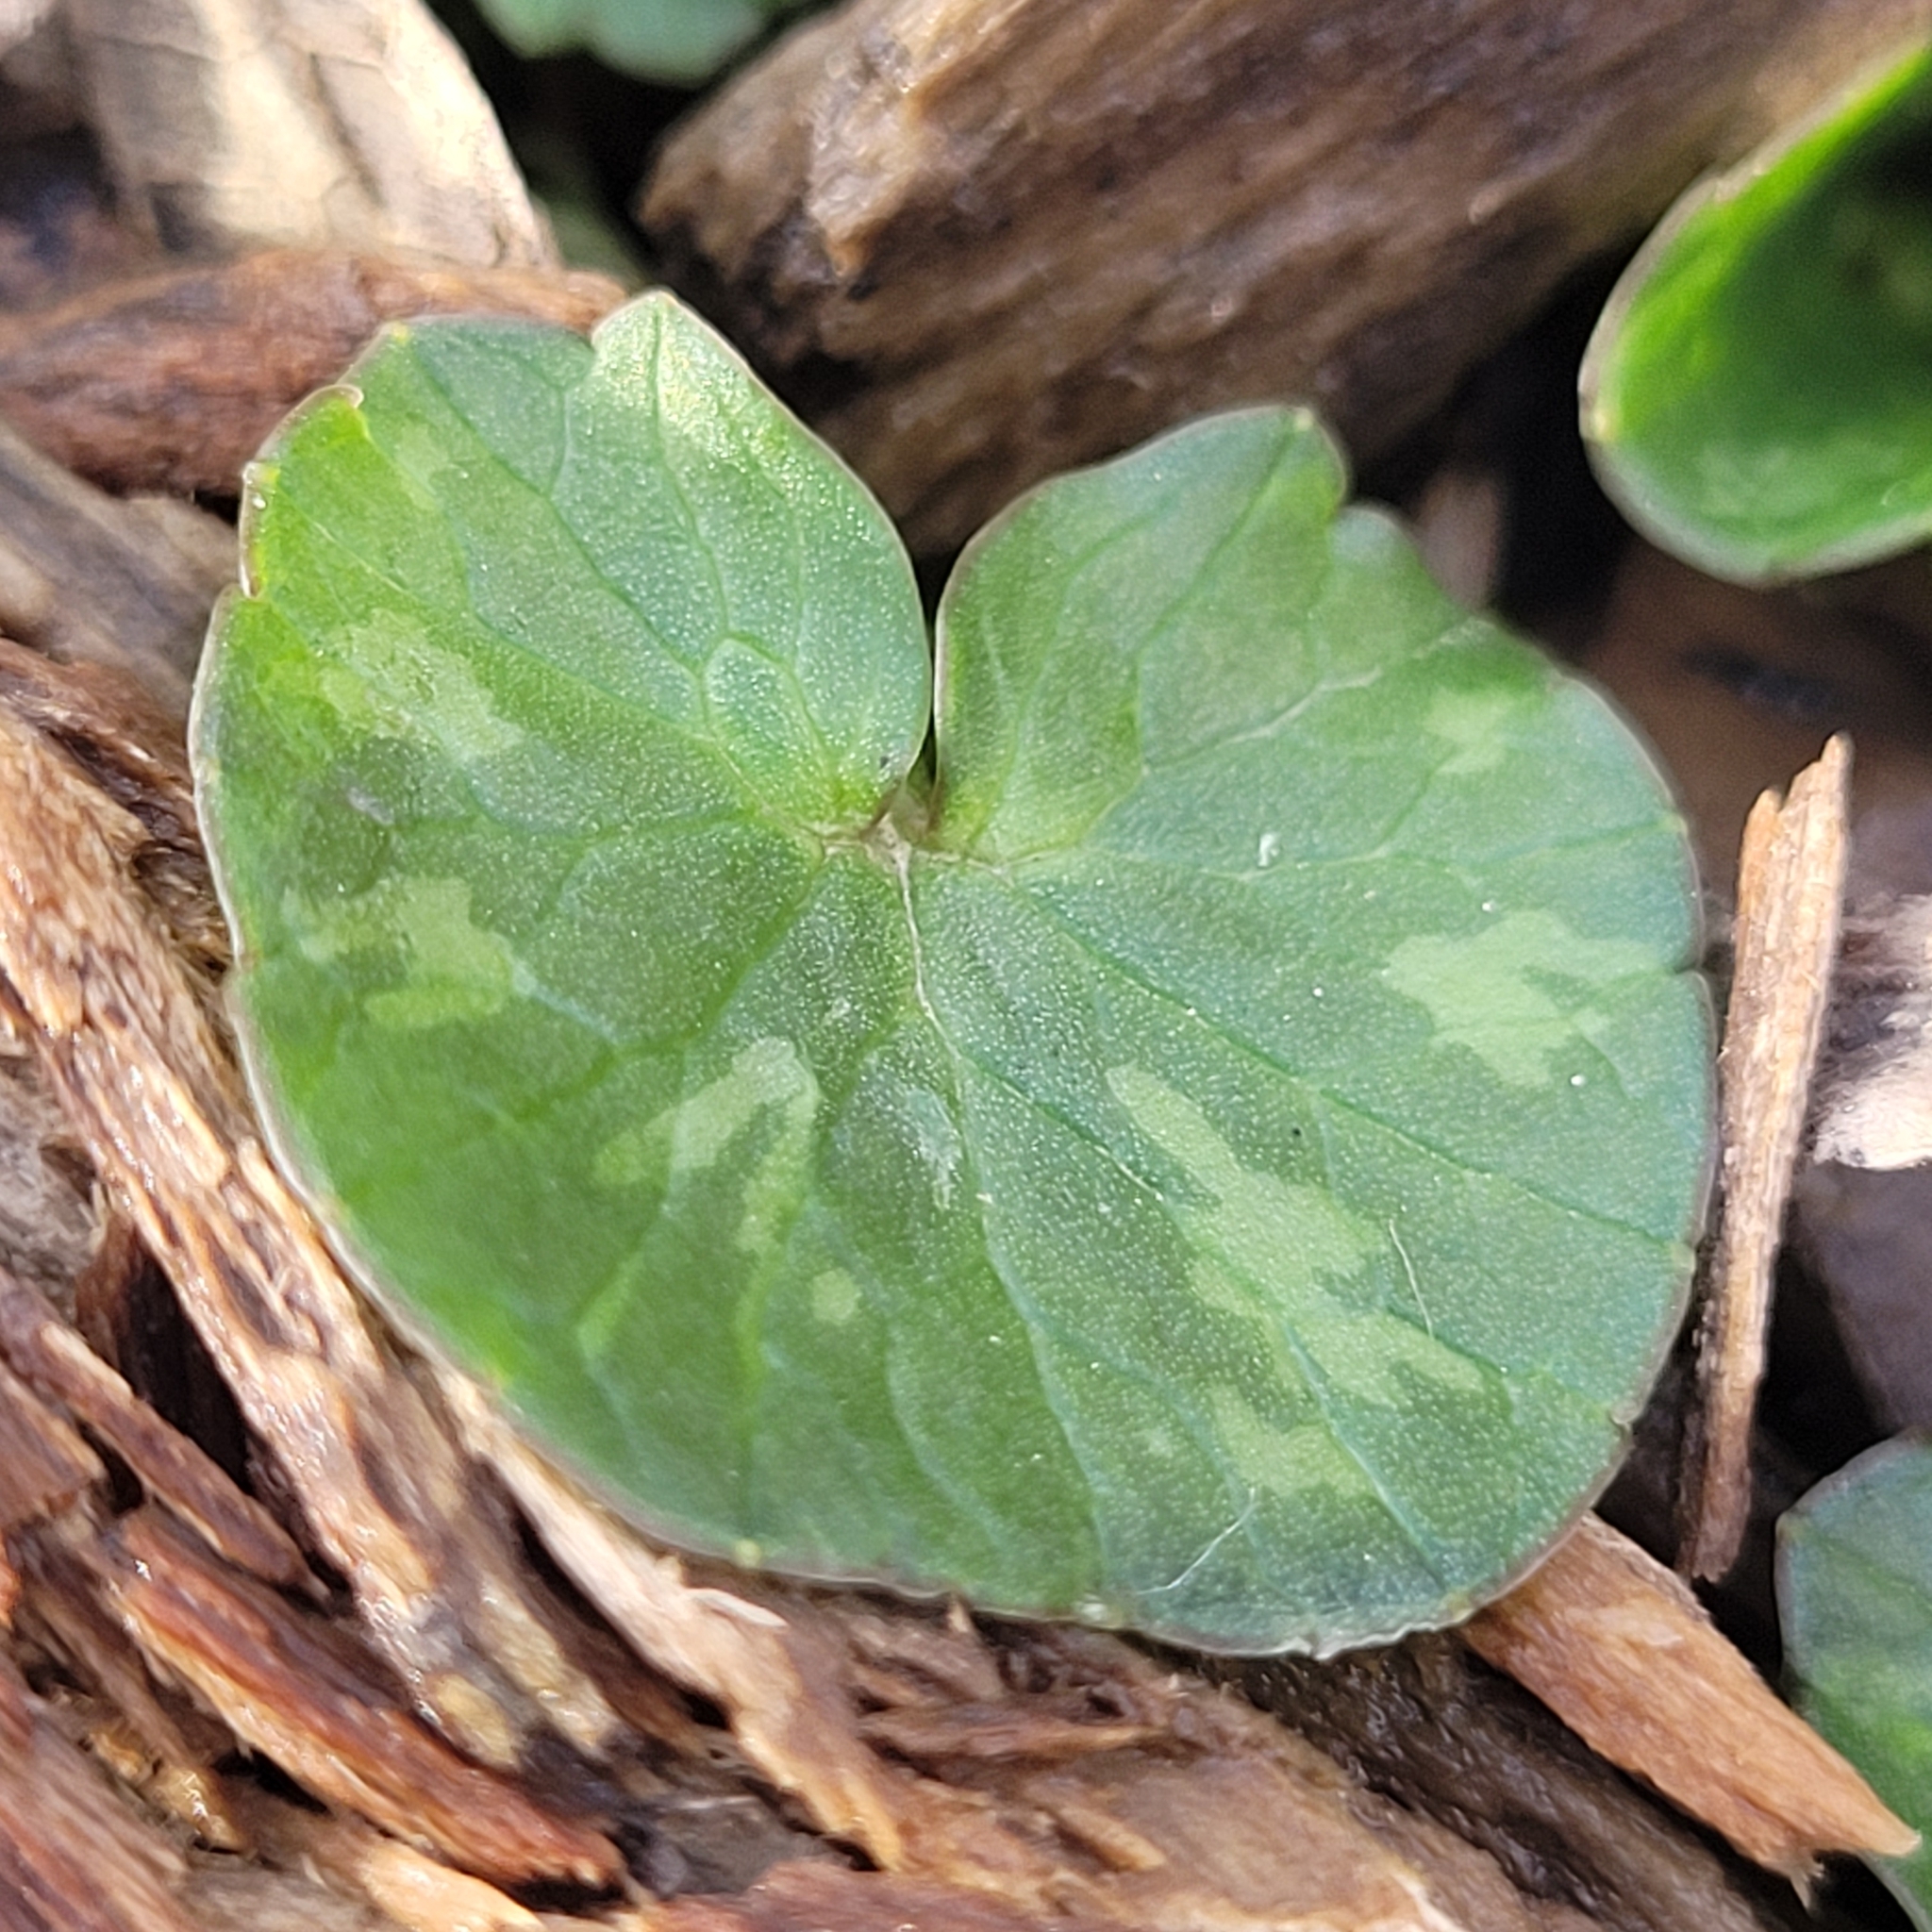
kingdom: Plantae
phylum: Tracheophyta
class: Magnoliopsida
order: Ranunculales
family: Ranunculaceae
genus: Ficaria
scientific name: Ficaria verna
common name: Lesser celandine
